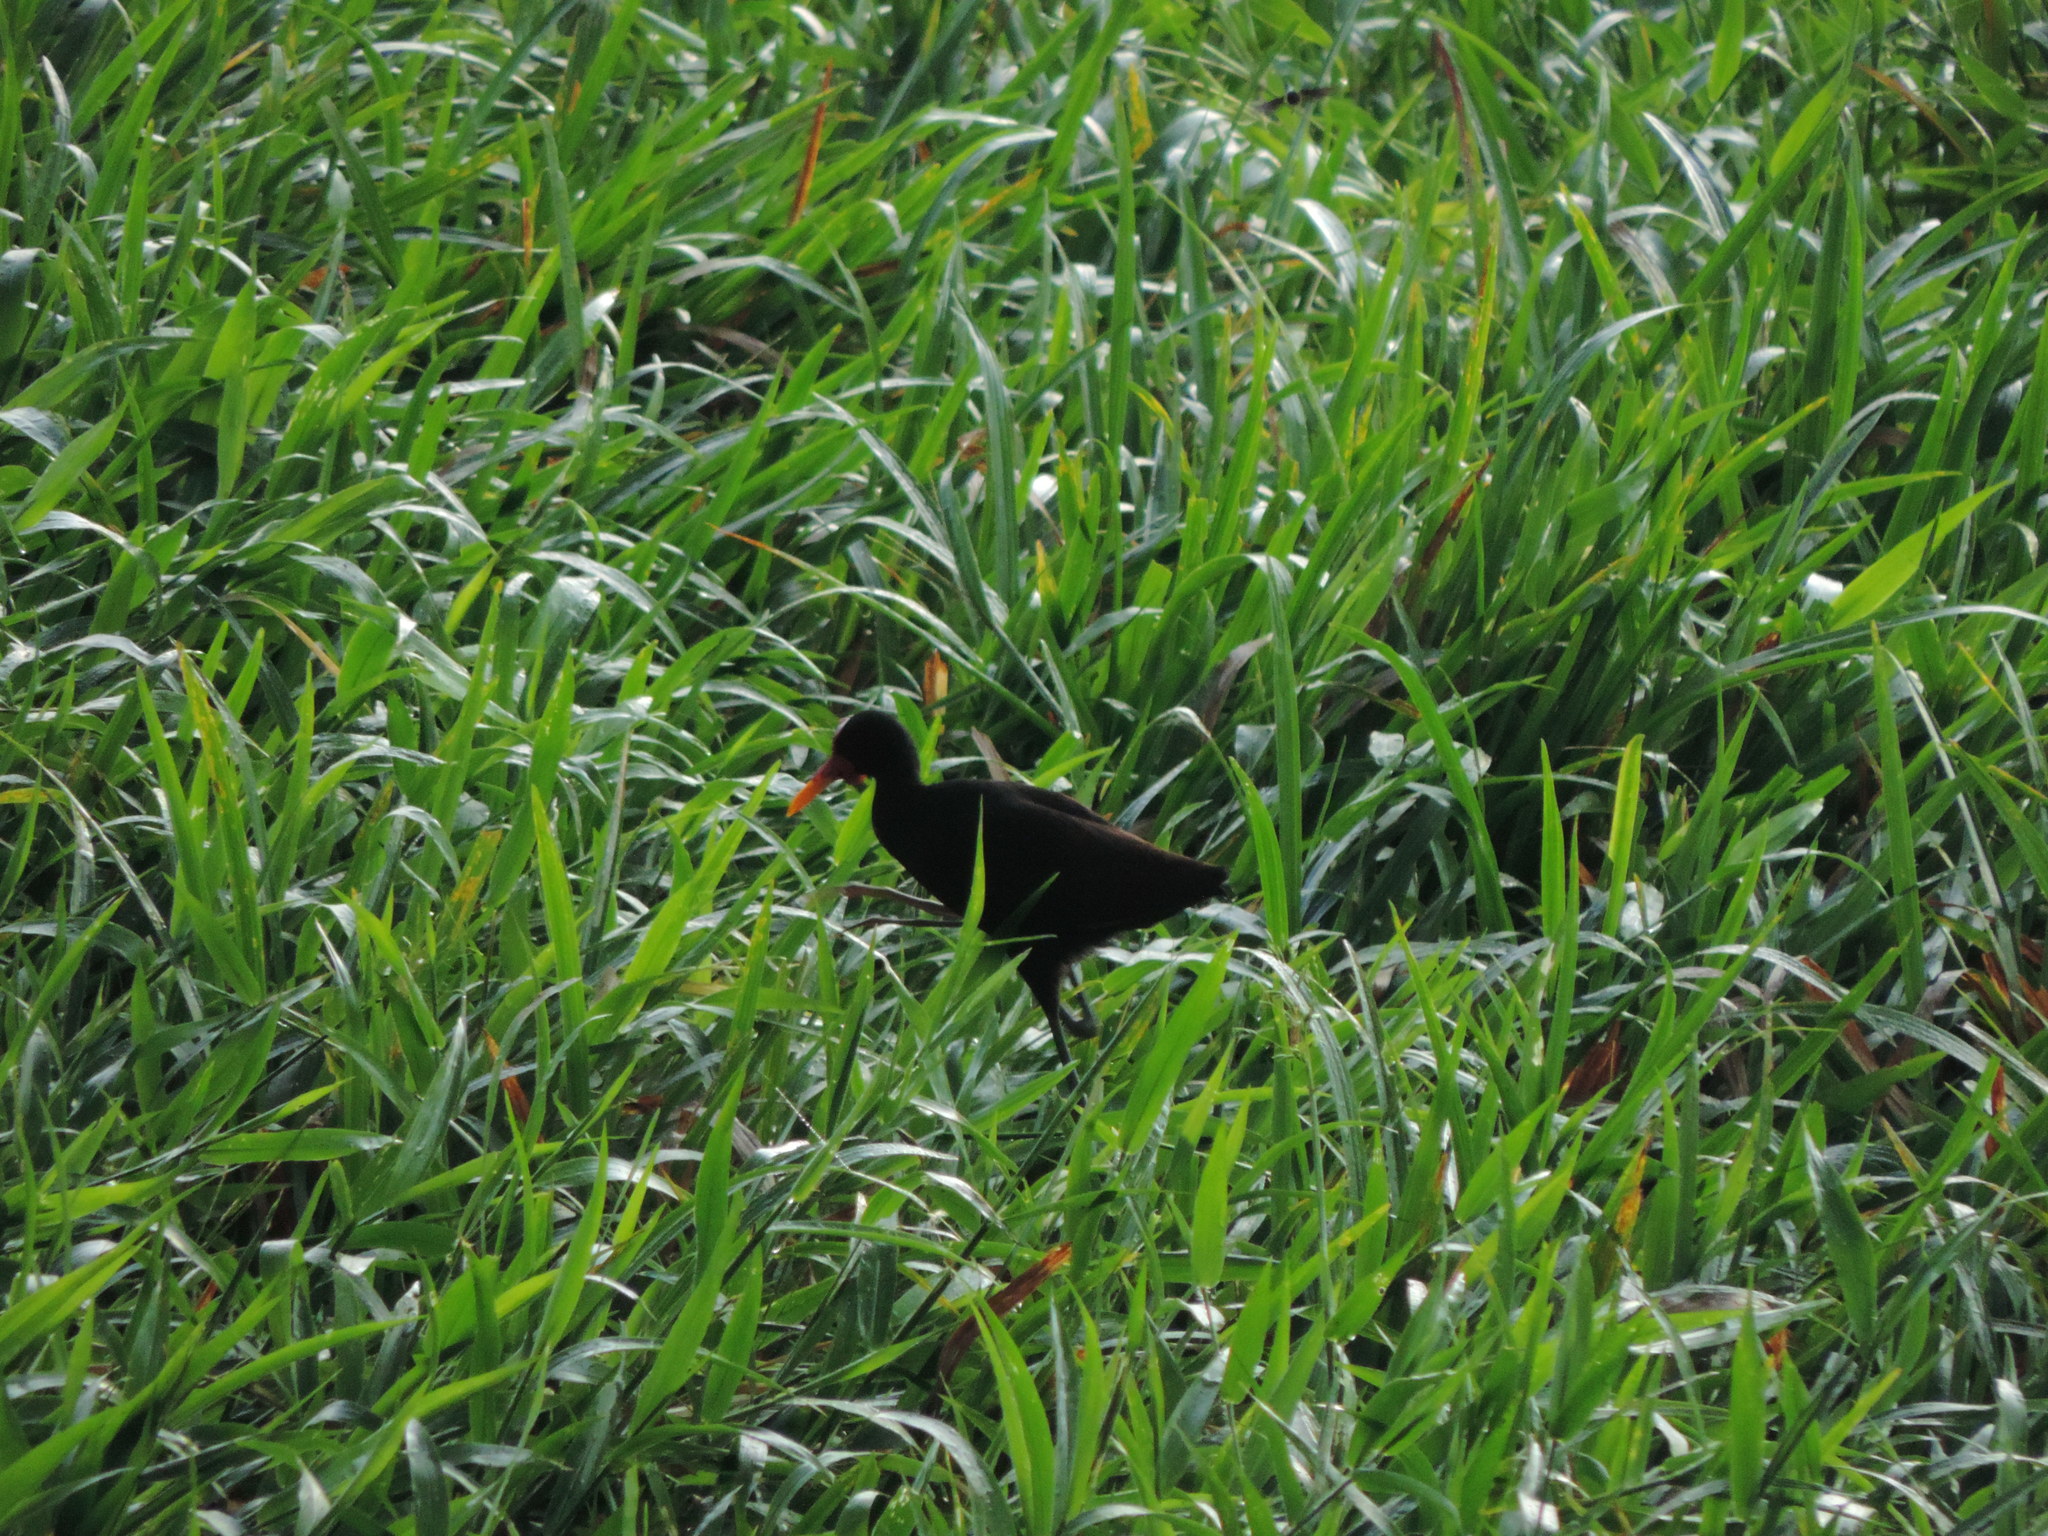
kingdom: Animalia
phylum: Chordata
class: Aves
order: Charadriiformes
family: Jacanidae
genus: Jacana
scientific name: Jacana jacana
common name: Wattled jacana
